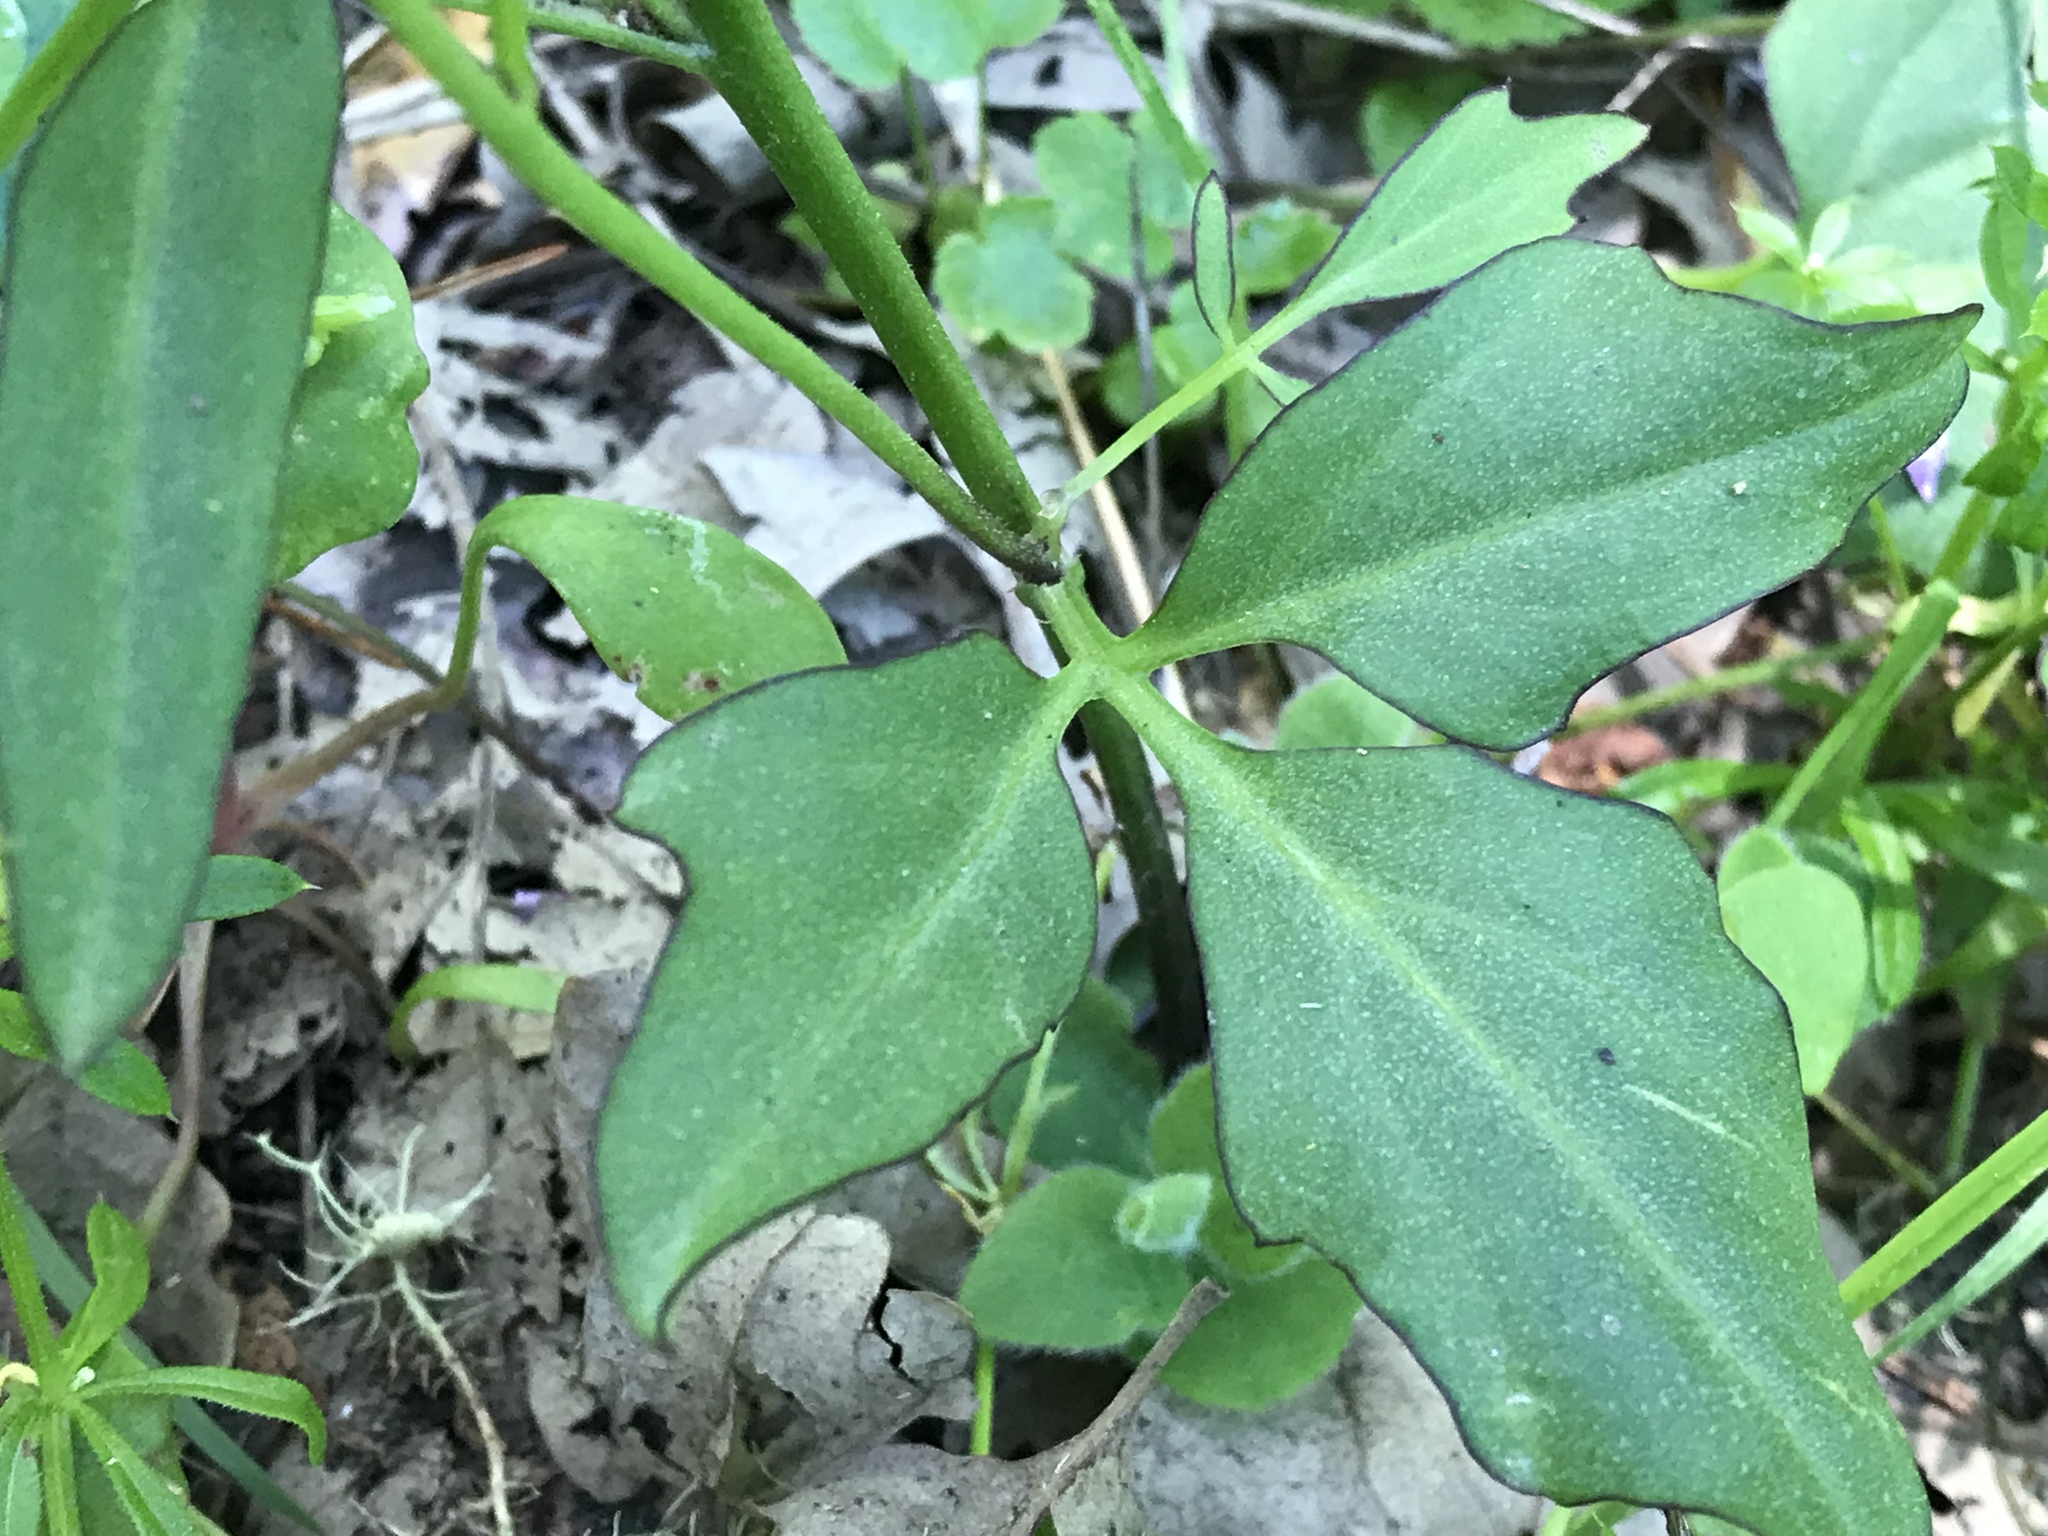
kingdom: Plantae
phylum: Tracheophyta
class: Magnoliopsida
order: Brassicales
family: Brassicaceae
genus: Cardamine
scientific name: Cardamine californica
